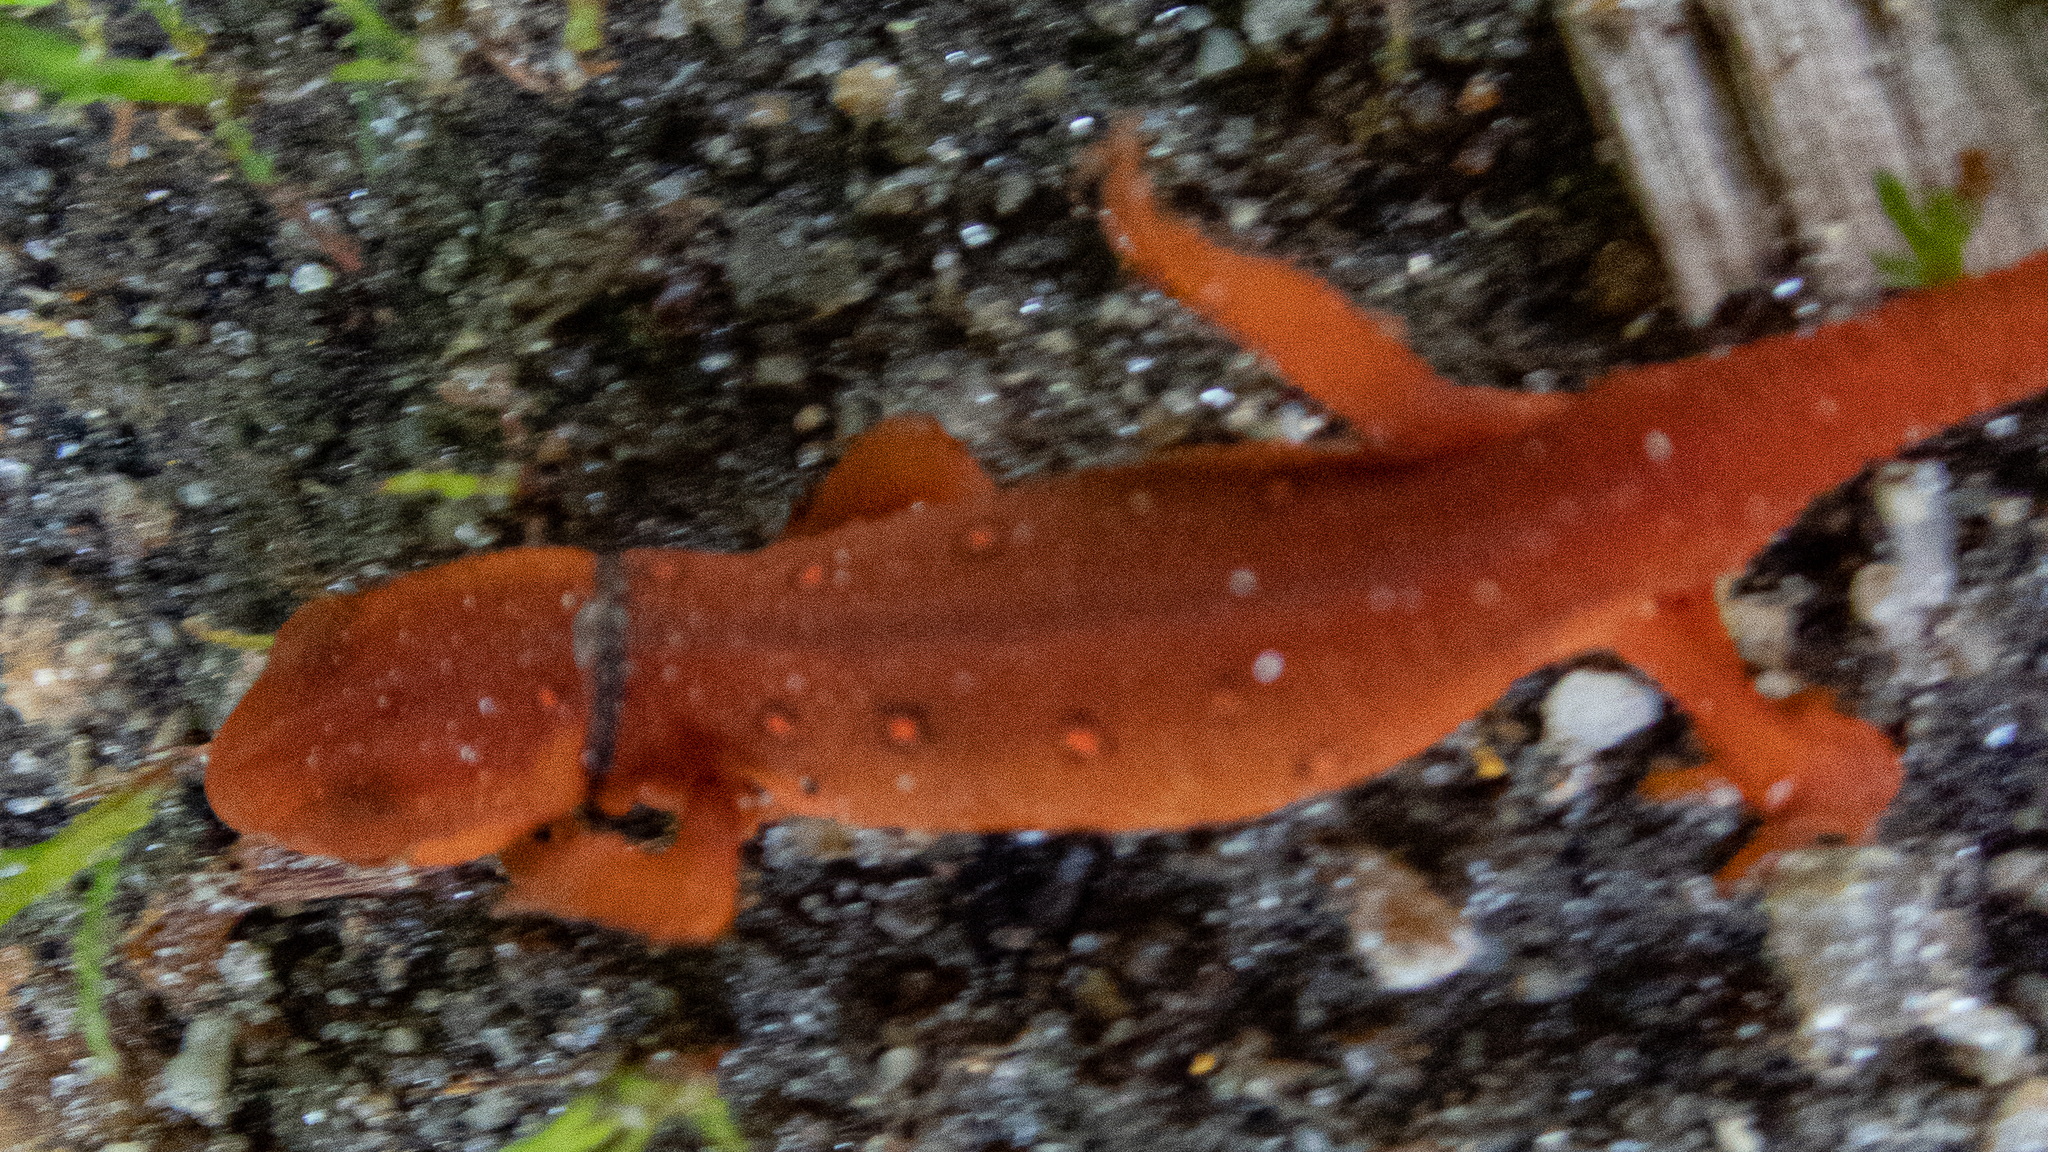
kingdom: Animalia
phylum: Chordata
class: Amphibia
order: Caudata
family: Salamandridae
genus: Notophthalmus
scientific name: Notophthalmus viridescens
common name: Eastern newt
